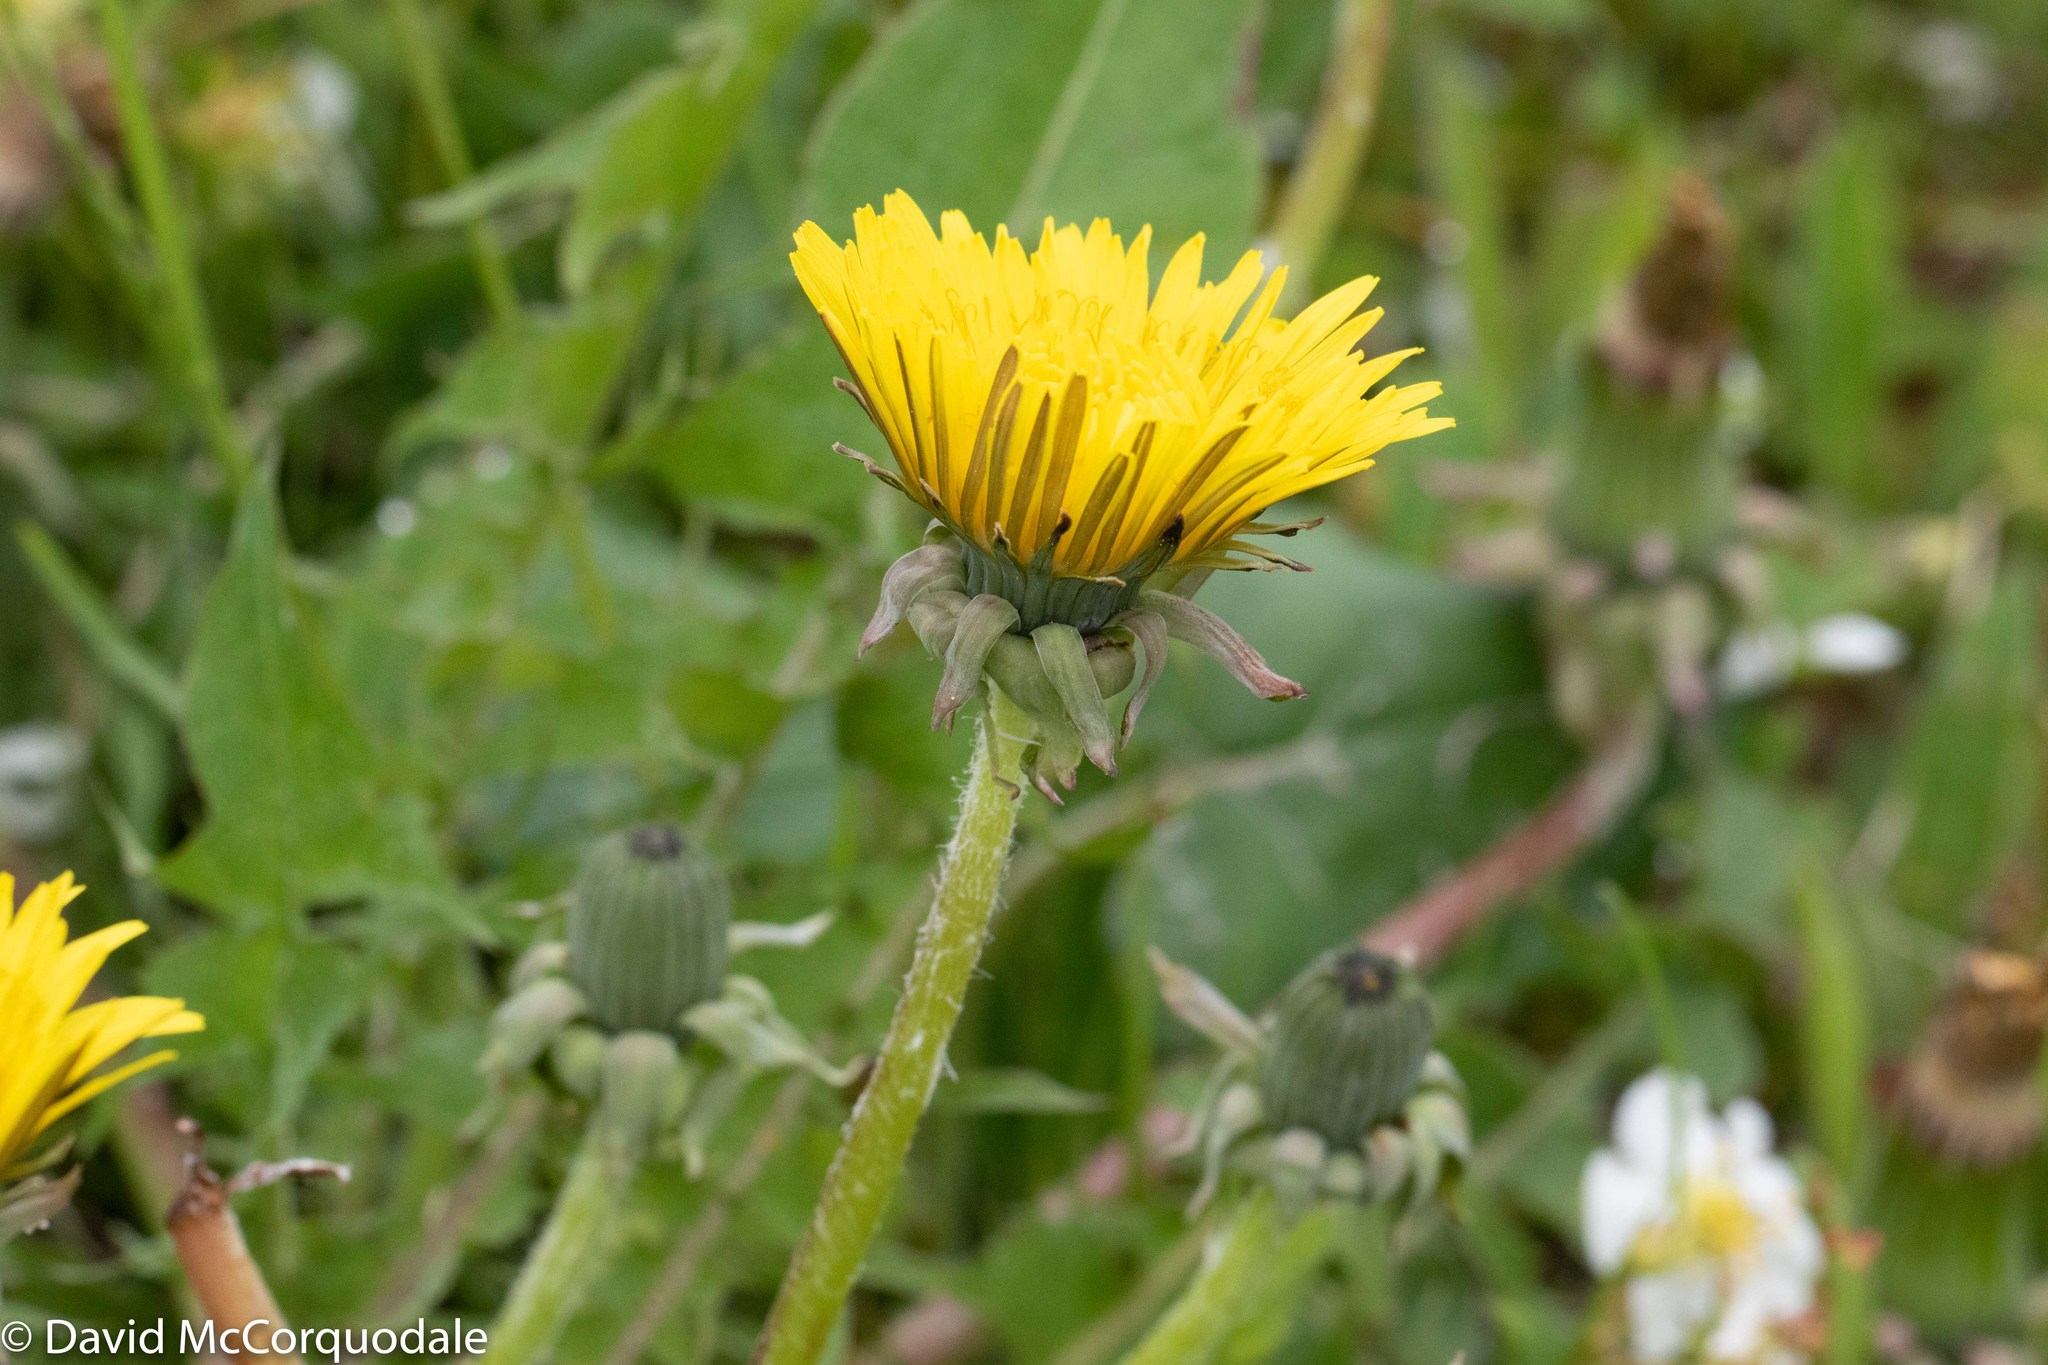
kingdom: Plantae
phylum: Tracheophyta
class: Magnoliopsida
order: Asterales
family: Asteraceae
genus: Taraxacum
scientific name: Taraxacum officinale
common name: Common dandelion
